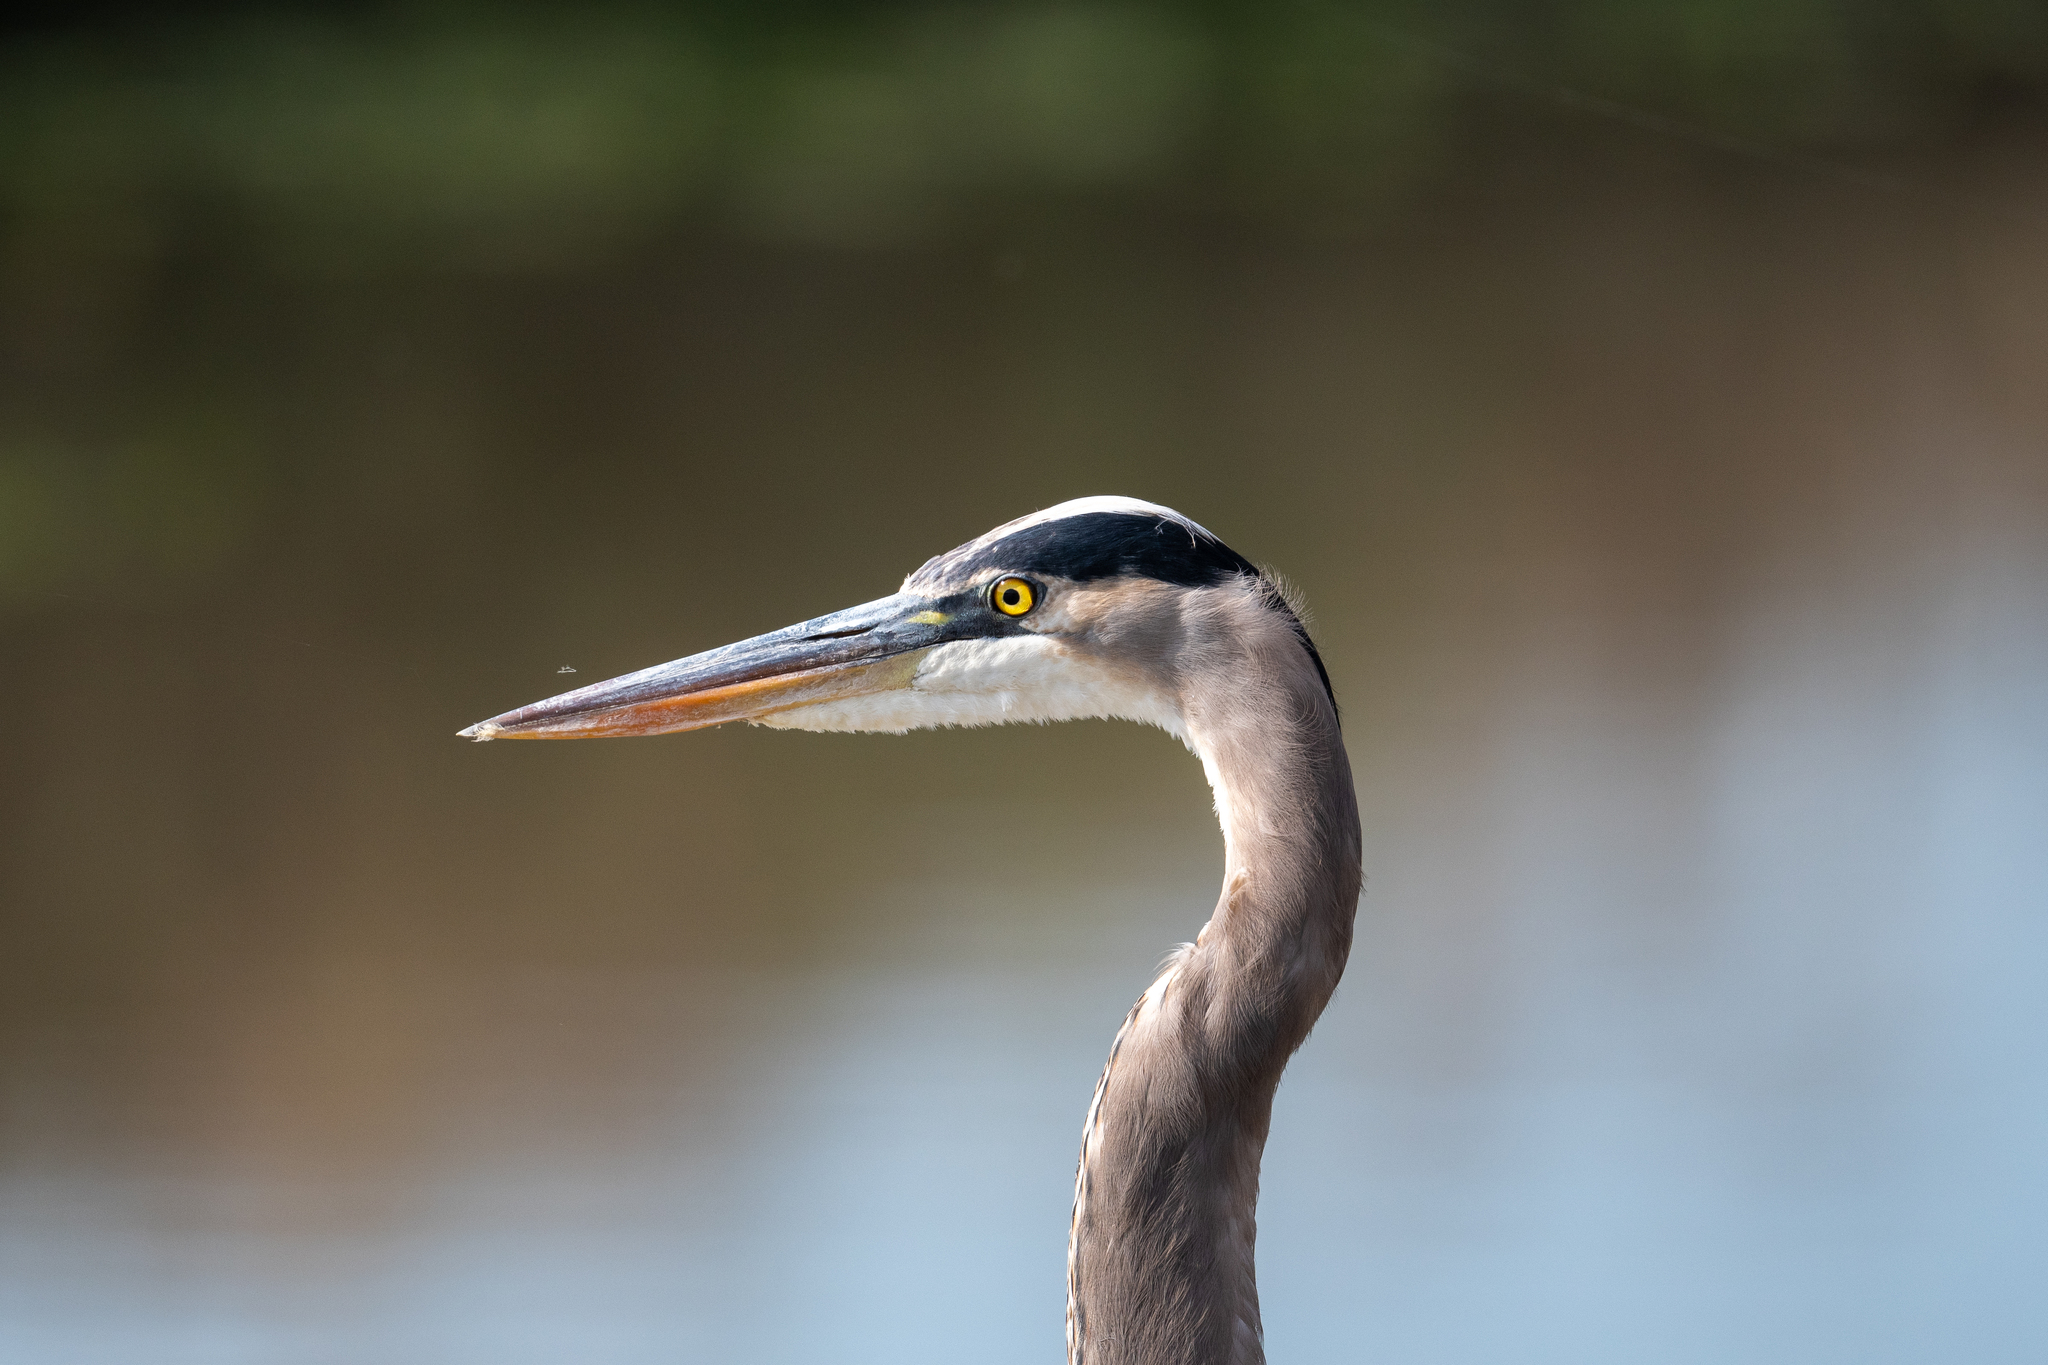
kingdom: Animalia
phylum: Chordata
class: Aves
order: Pelecaniformes
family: Ardeidae
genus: Ardea
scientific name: Ardea herodias
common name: Great blue heron
